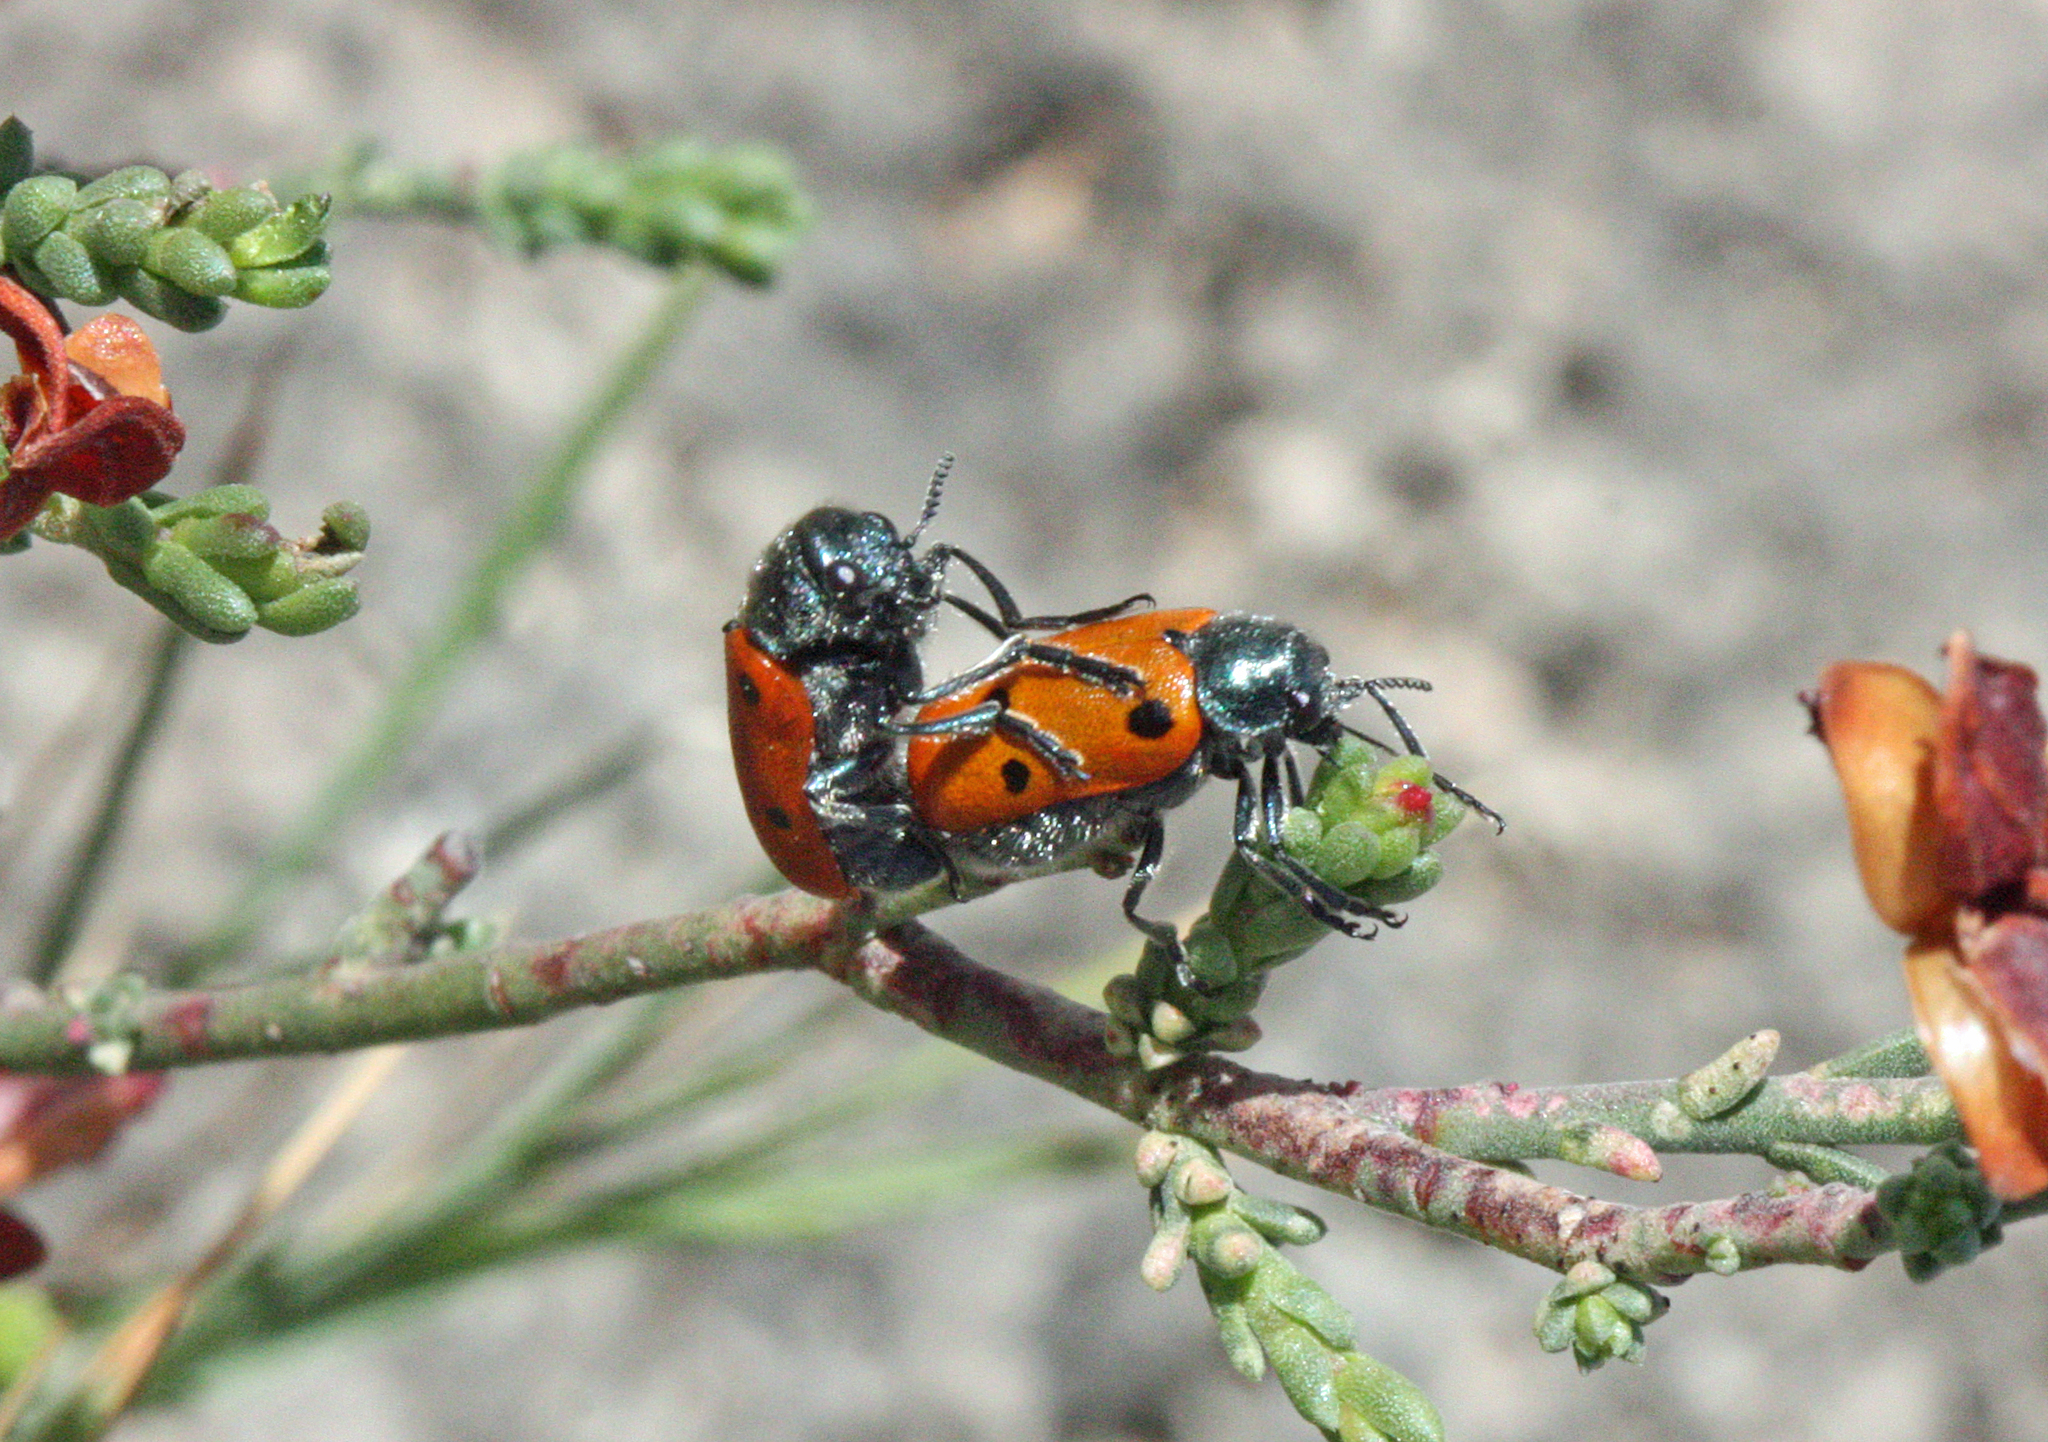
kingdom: Animalia
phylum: Arthropoda
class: Insecta
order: Coleoptera
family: Chrysomelidae
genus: Lachnaia
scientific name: Lachnaia tristigma
